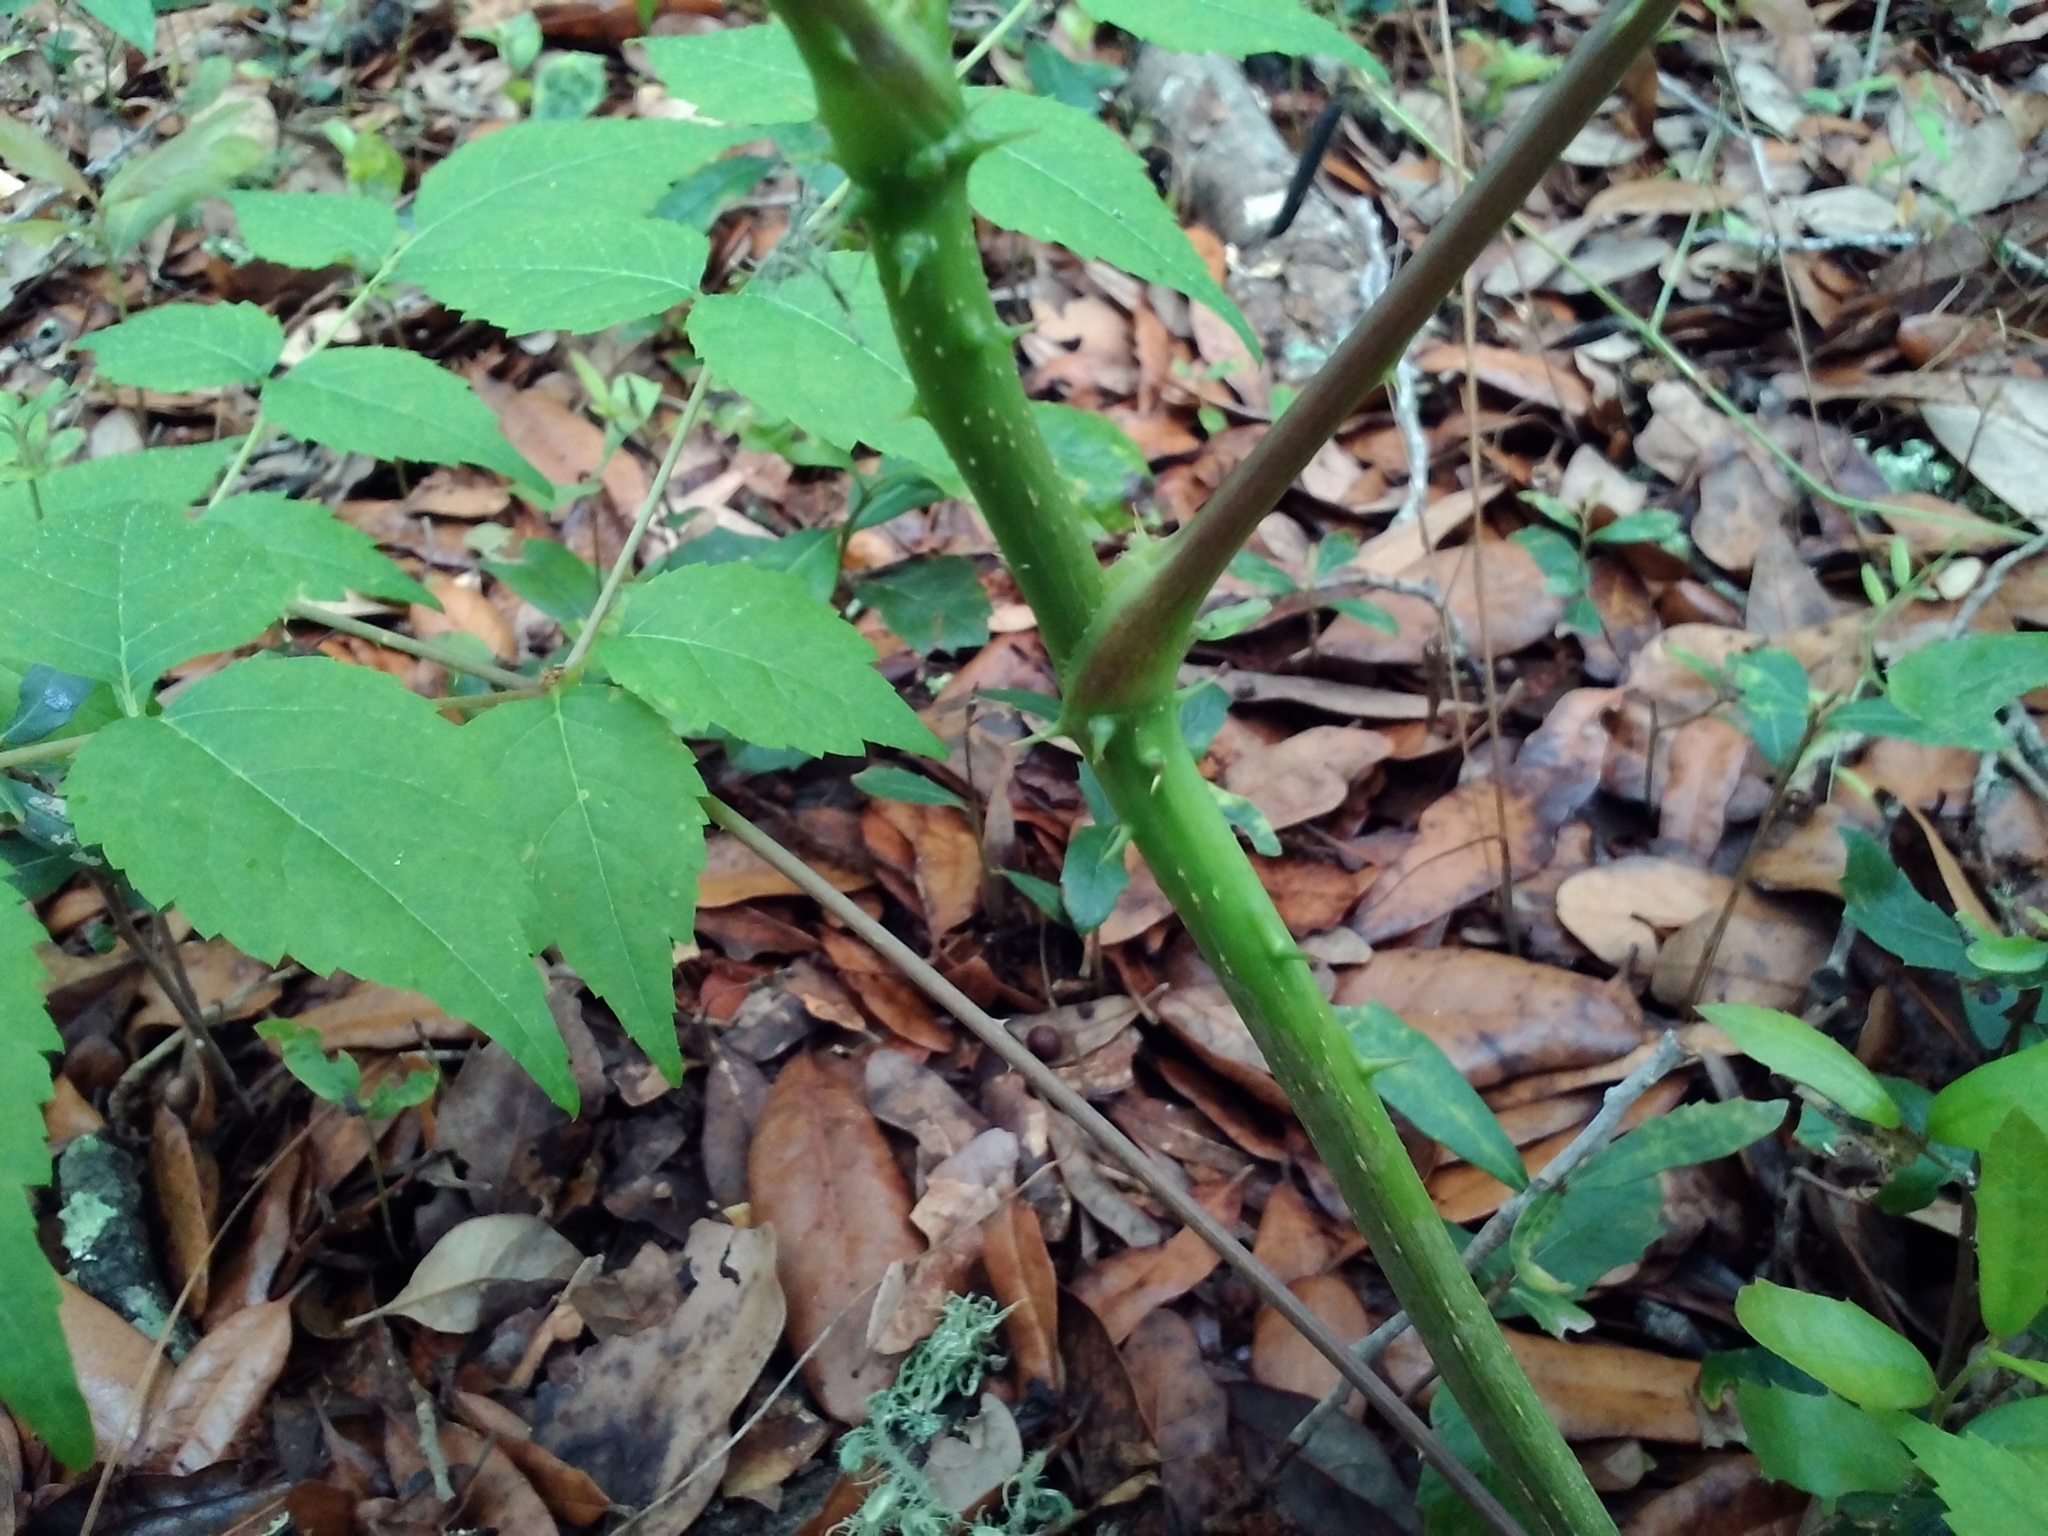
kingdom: Plantae
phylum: Tracheophyta
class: Magnoliopsida
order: Apiales
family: Araliaceae
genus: Aralia
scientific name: Aralia spinosa
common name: Hercules'-club
